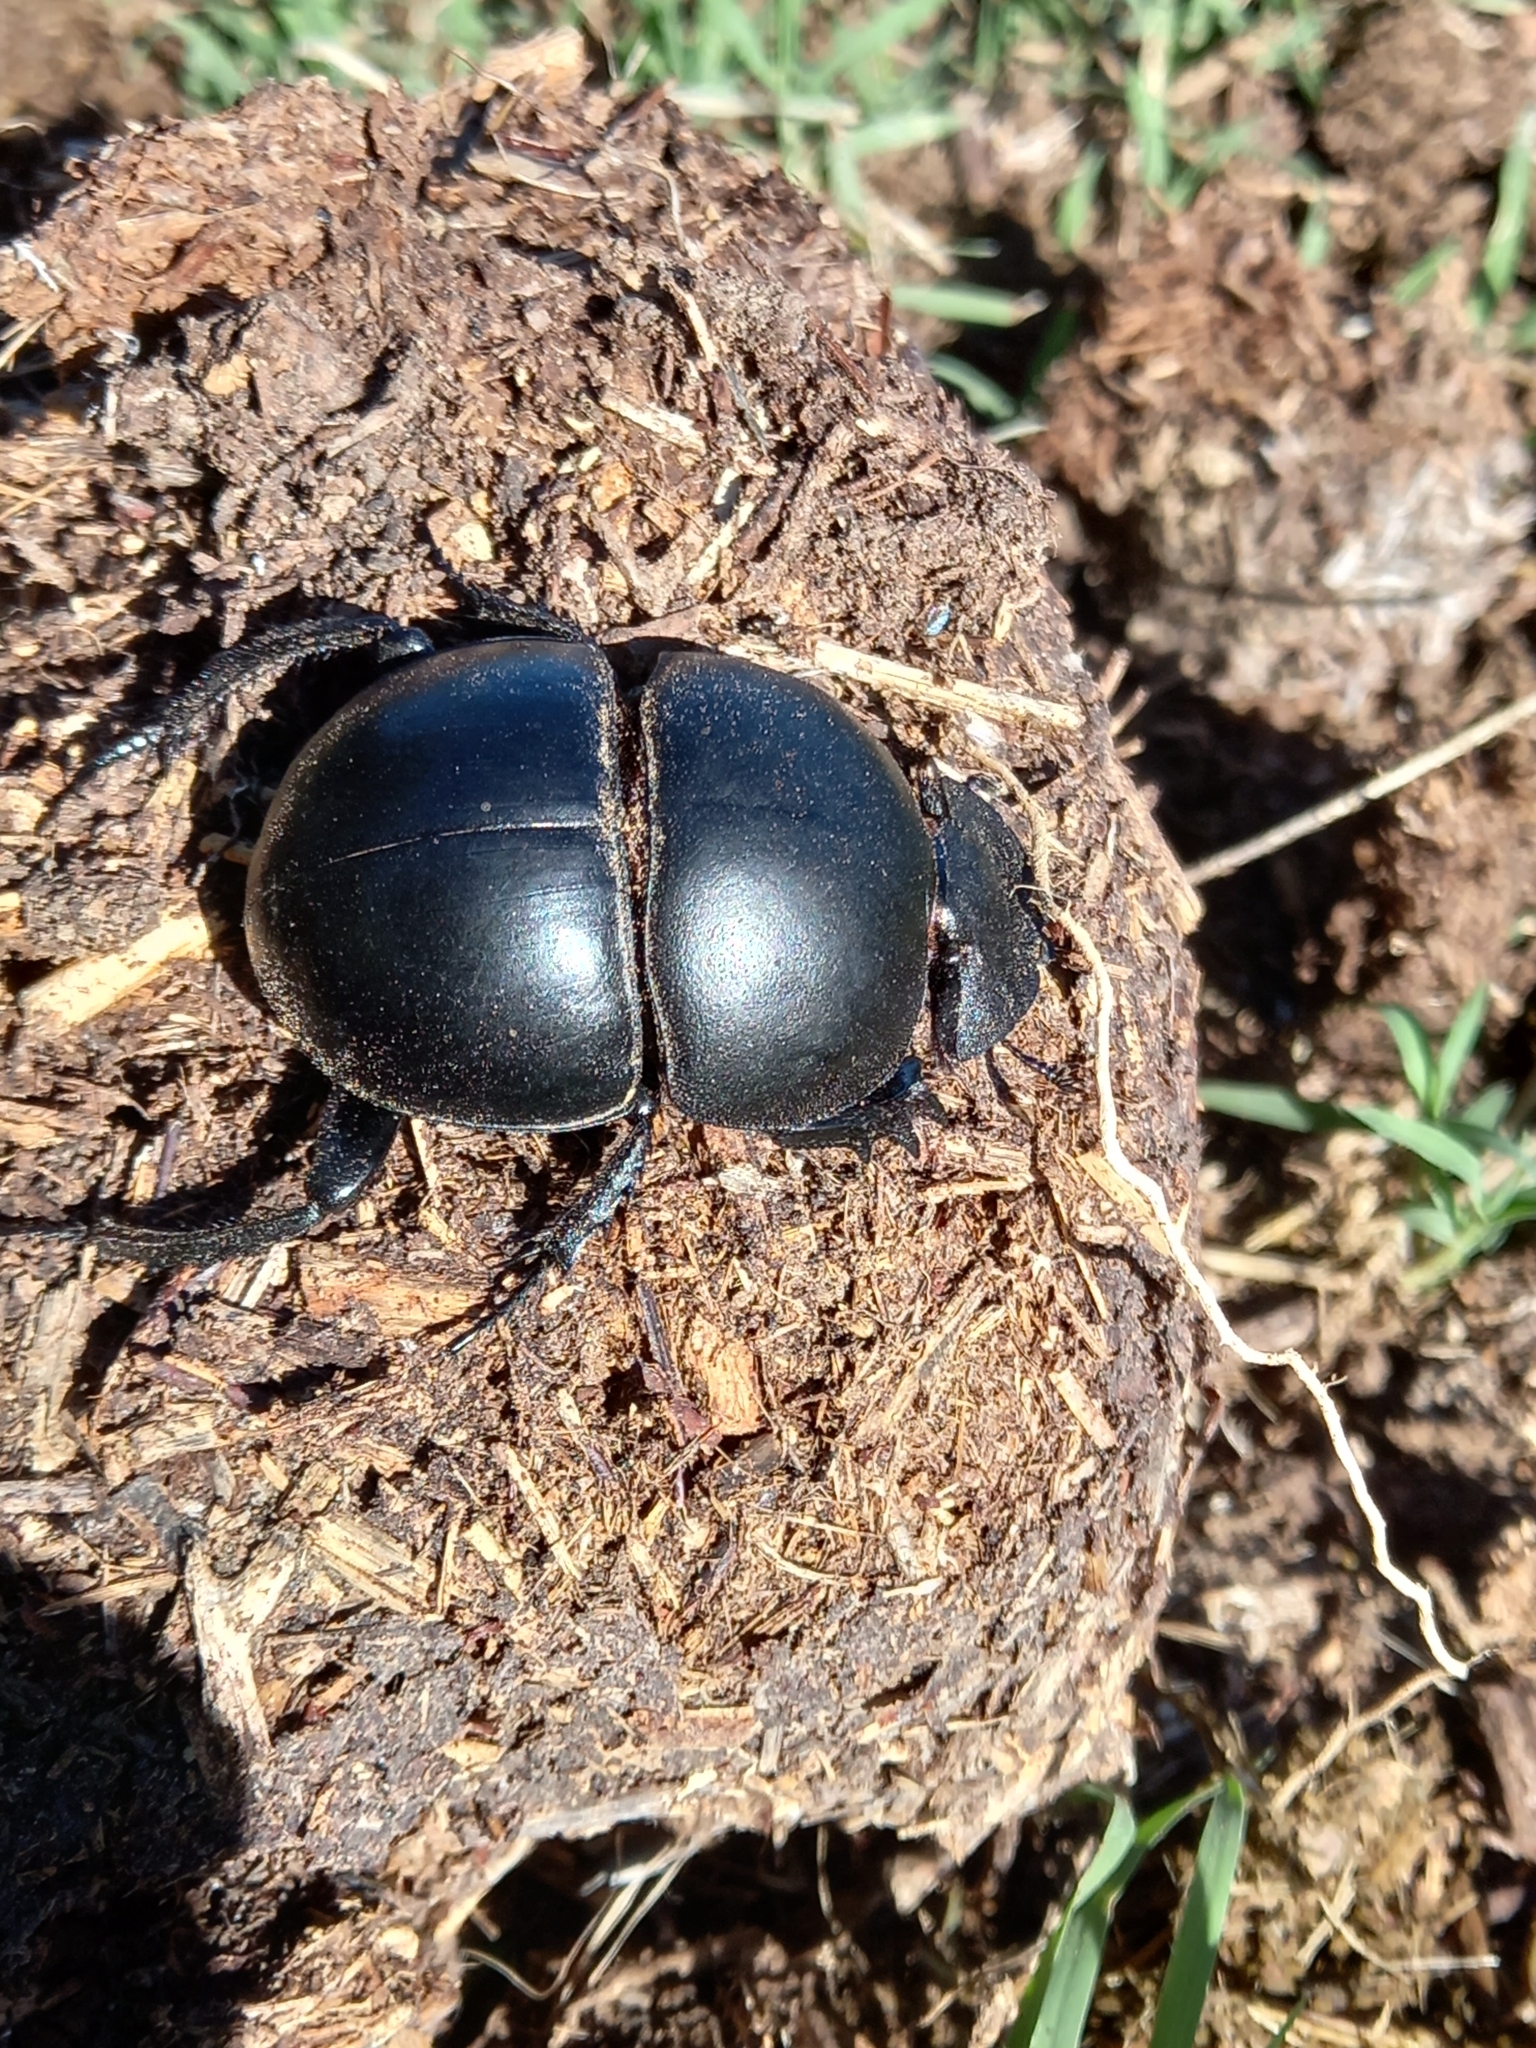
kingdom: Animalia
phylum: Arthropoda
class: Insecta
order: Coleoptera
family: Scarabaeidae
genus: Circellium
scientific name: Circellium bacchus
